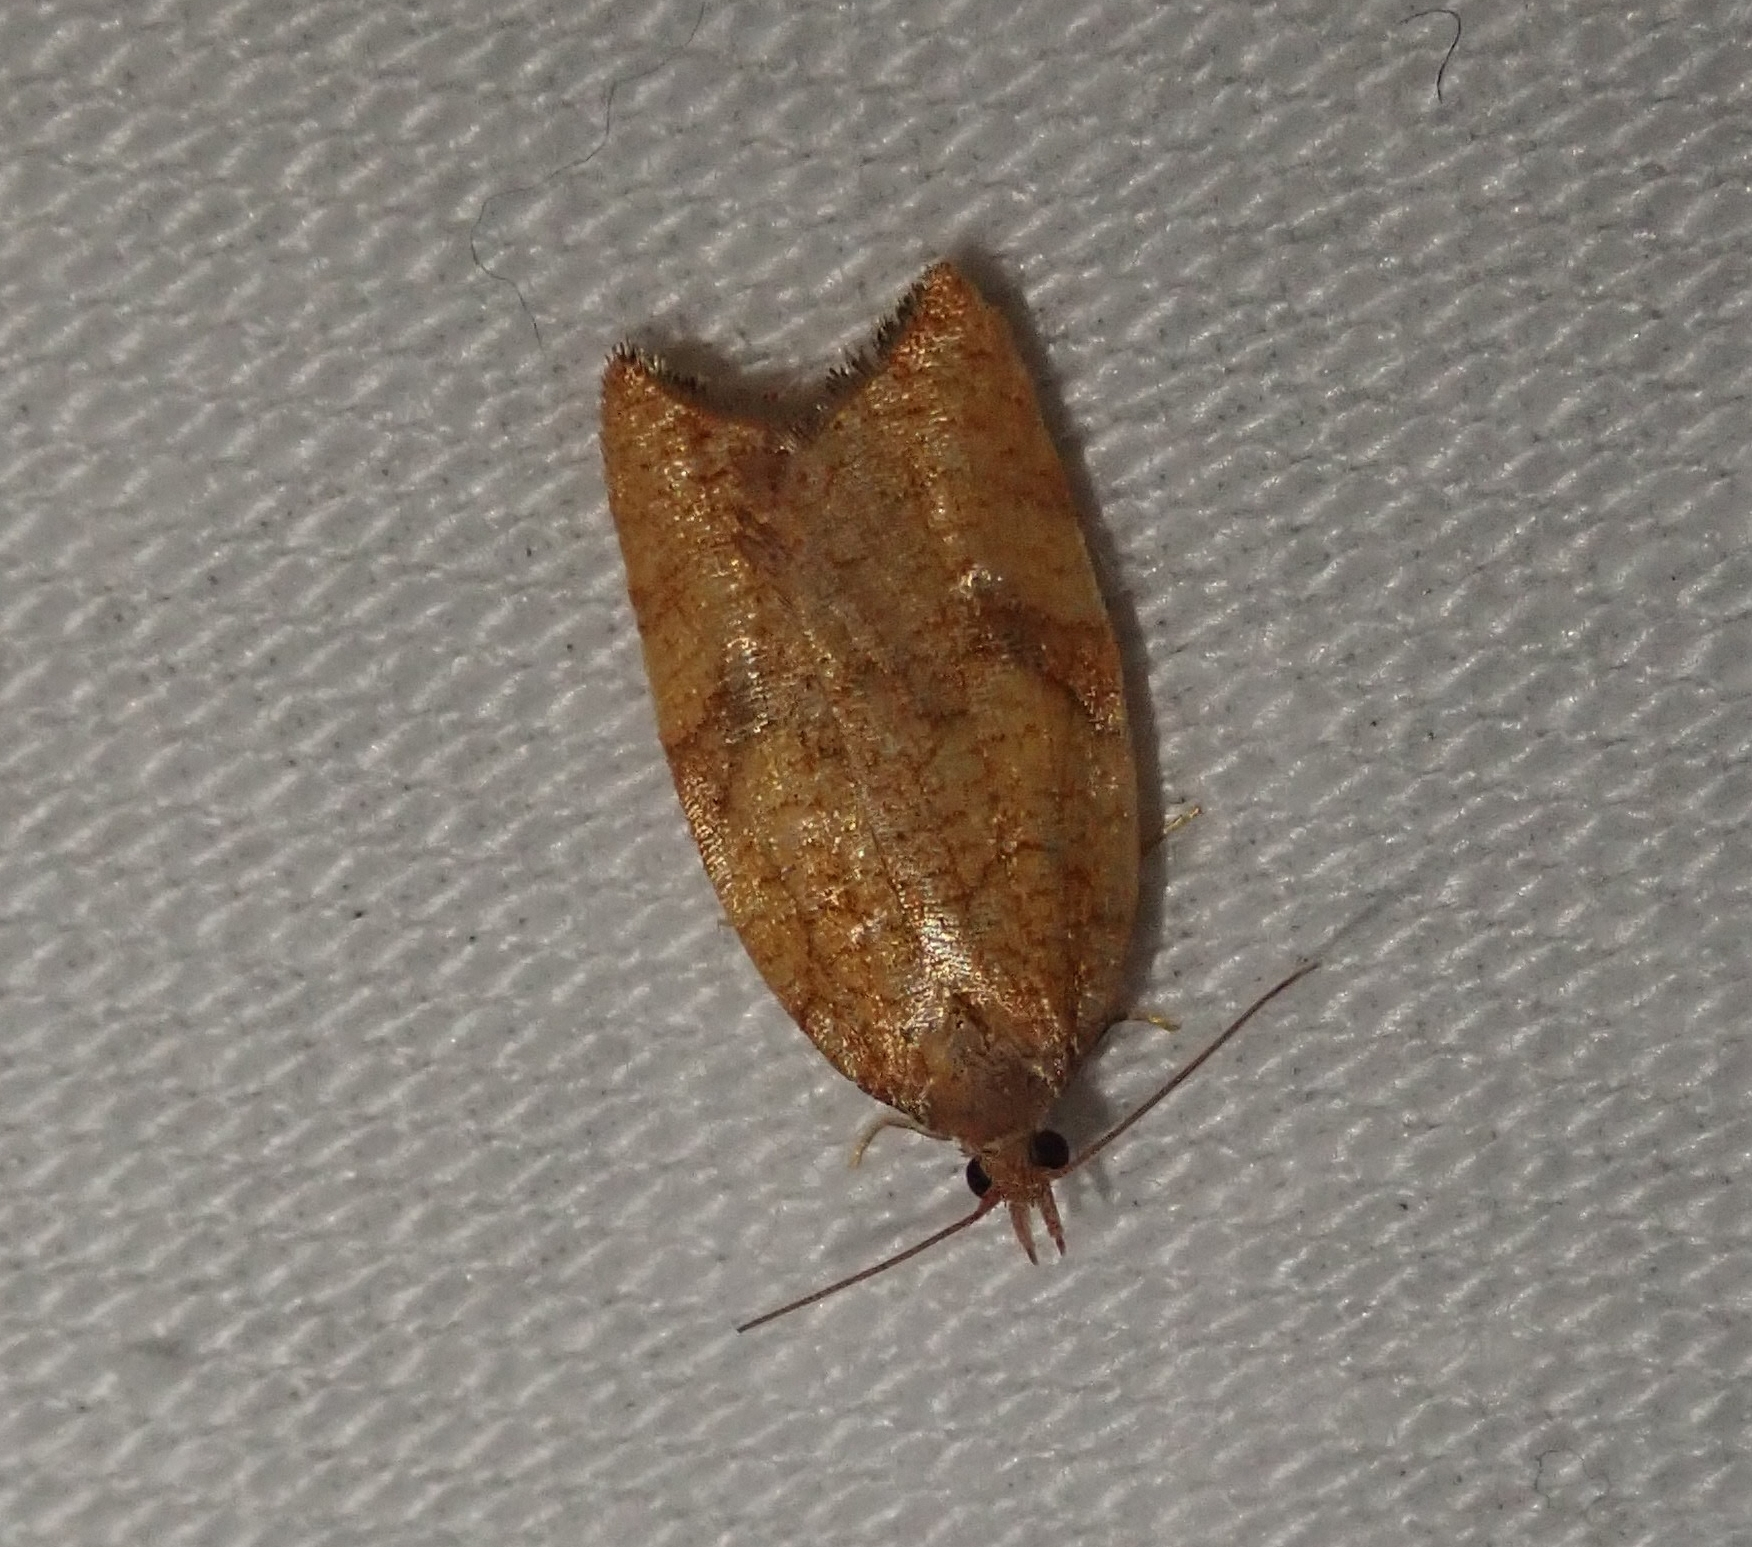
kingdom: Animalia
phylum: Arthropoda
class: Insecta
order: Lepidoptera
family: Tortricidae
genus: Clepsis
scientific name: Clepsis consimilana
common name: Privet tortrix
